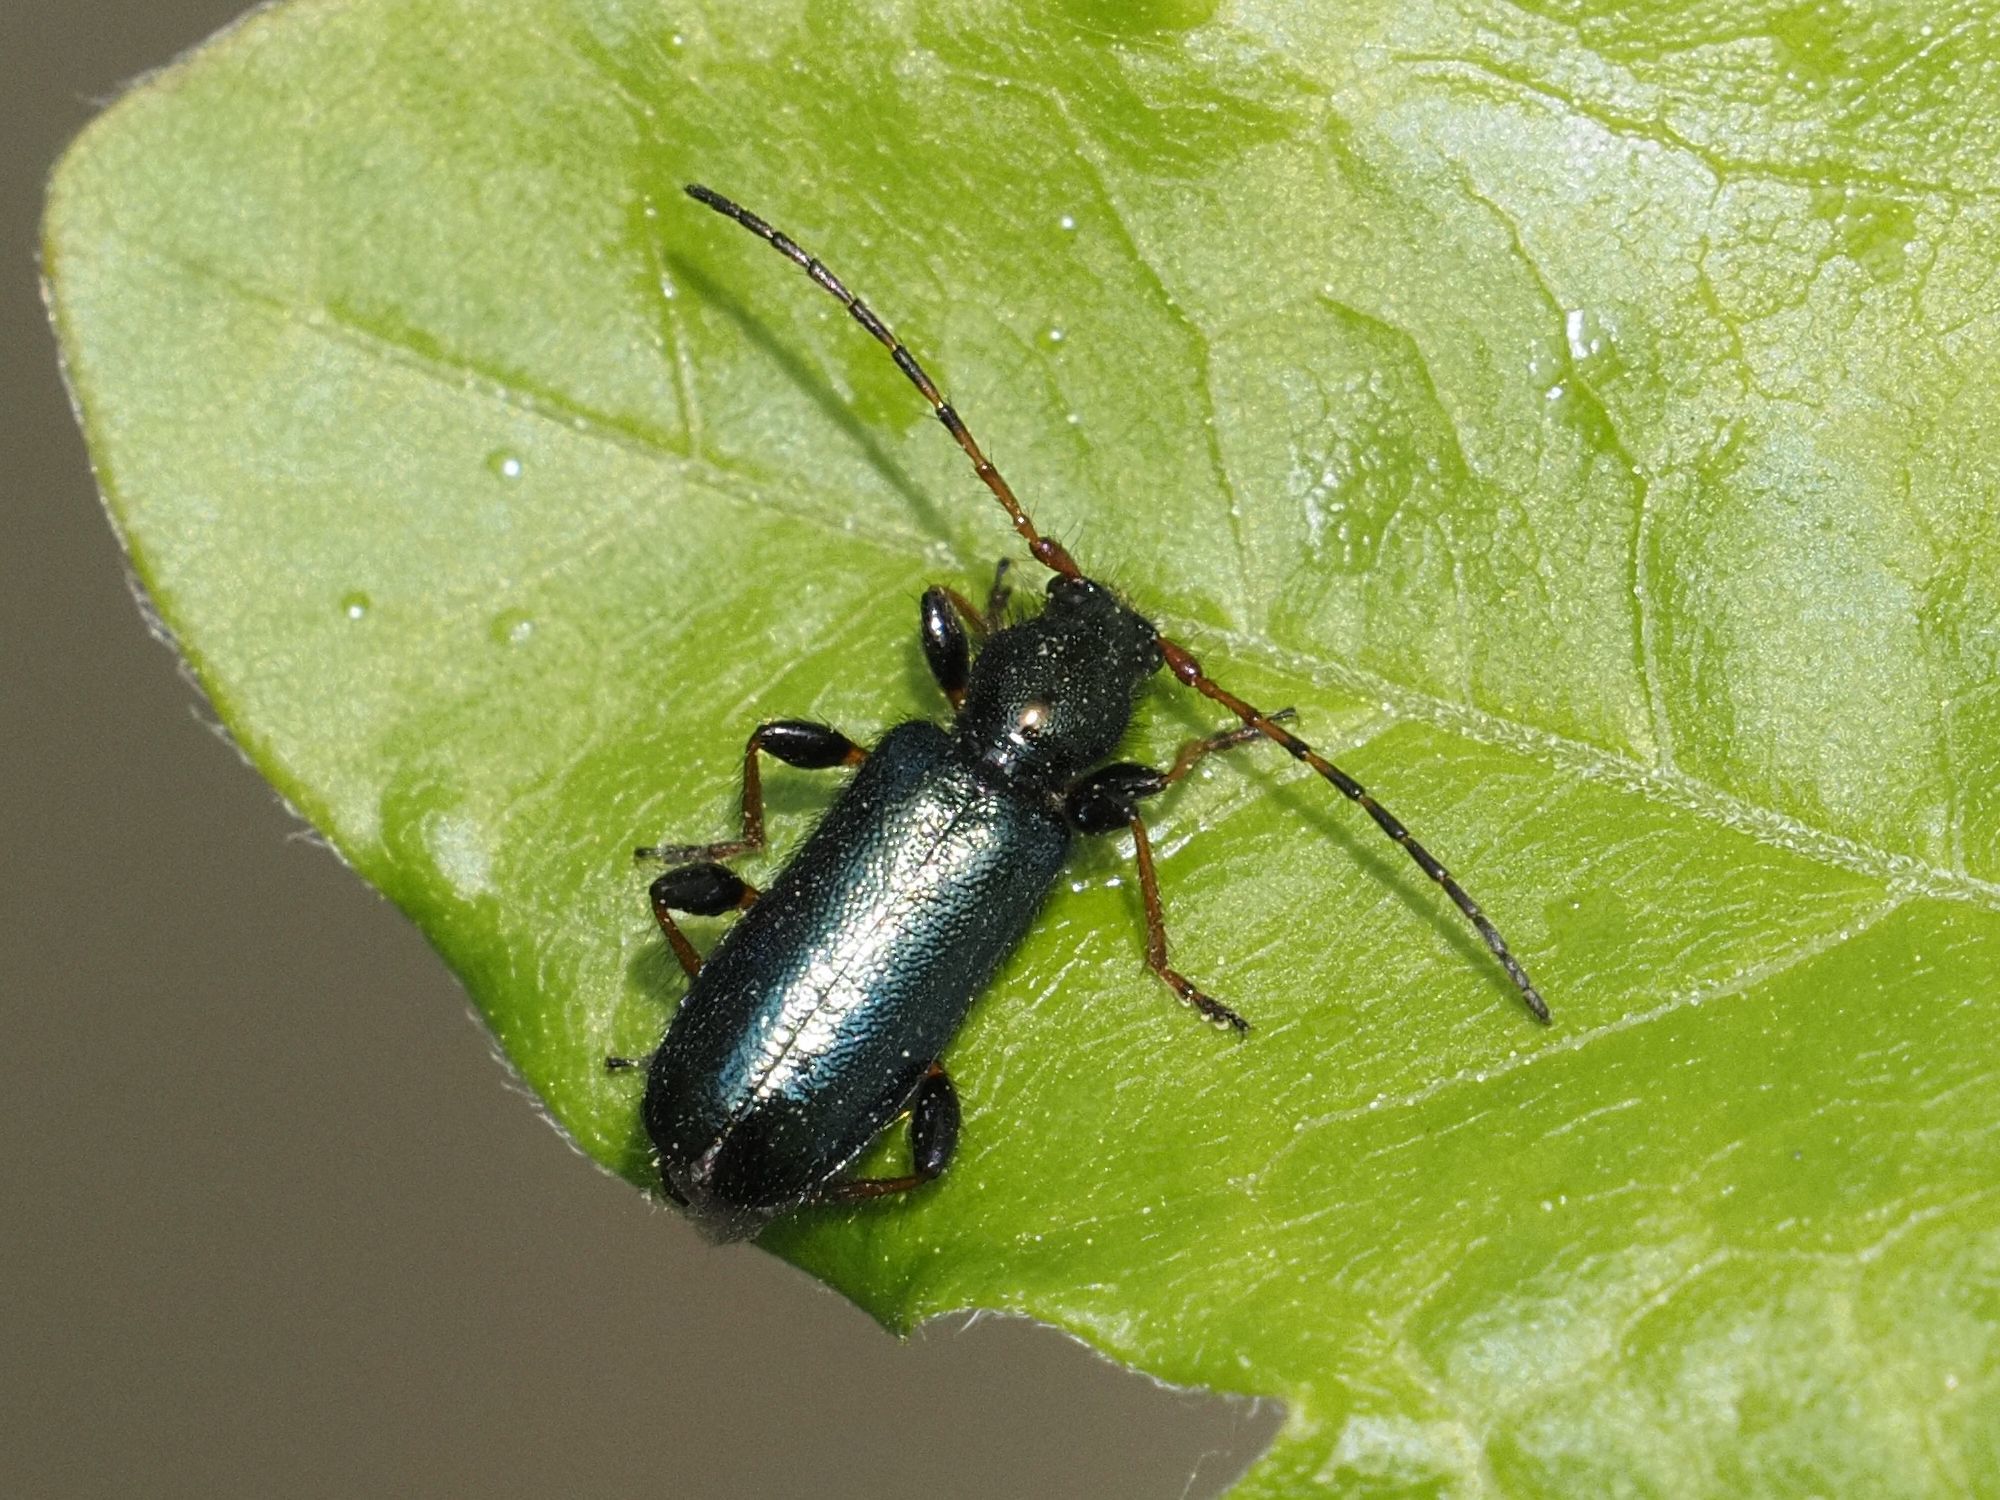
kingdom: Animalia
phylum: Arthropoda
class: Insecta
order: Coleoptera
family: Cerambycidae
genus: Phymatodes
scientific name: Phymatodes rufipes
